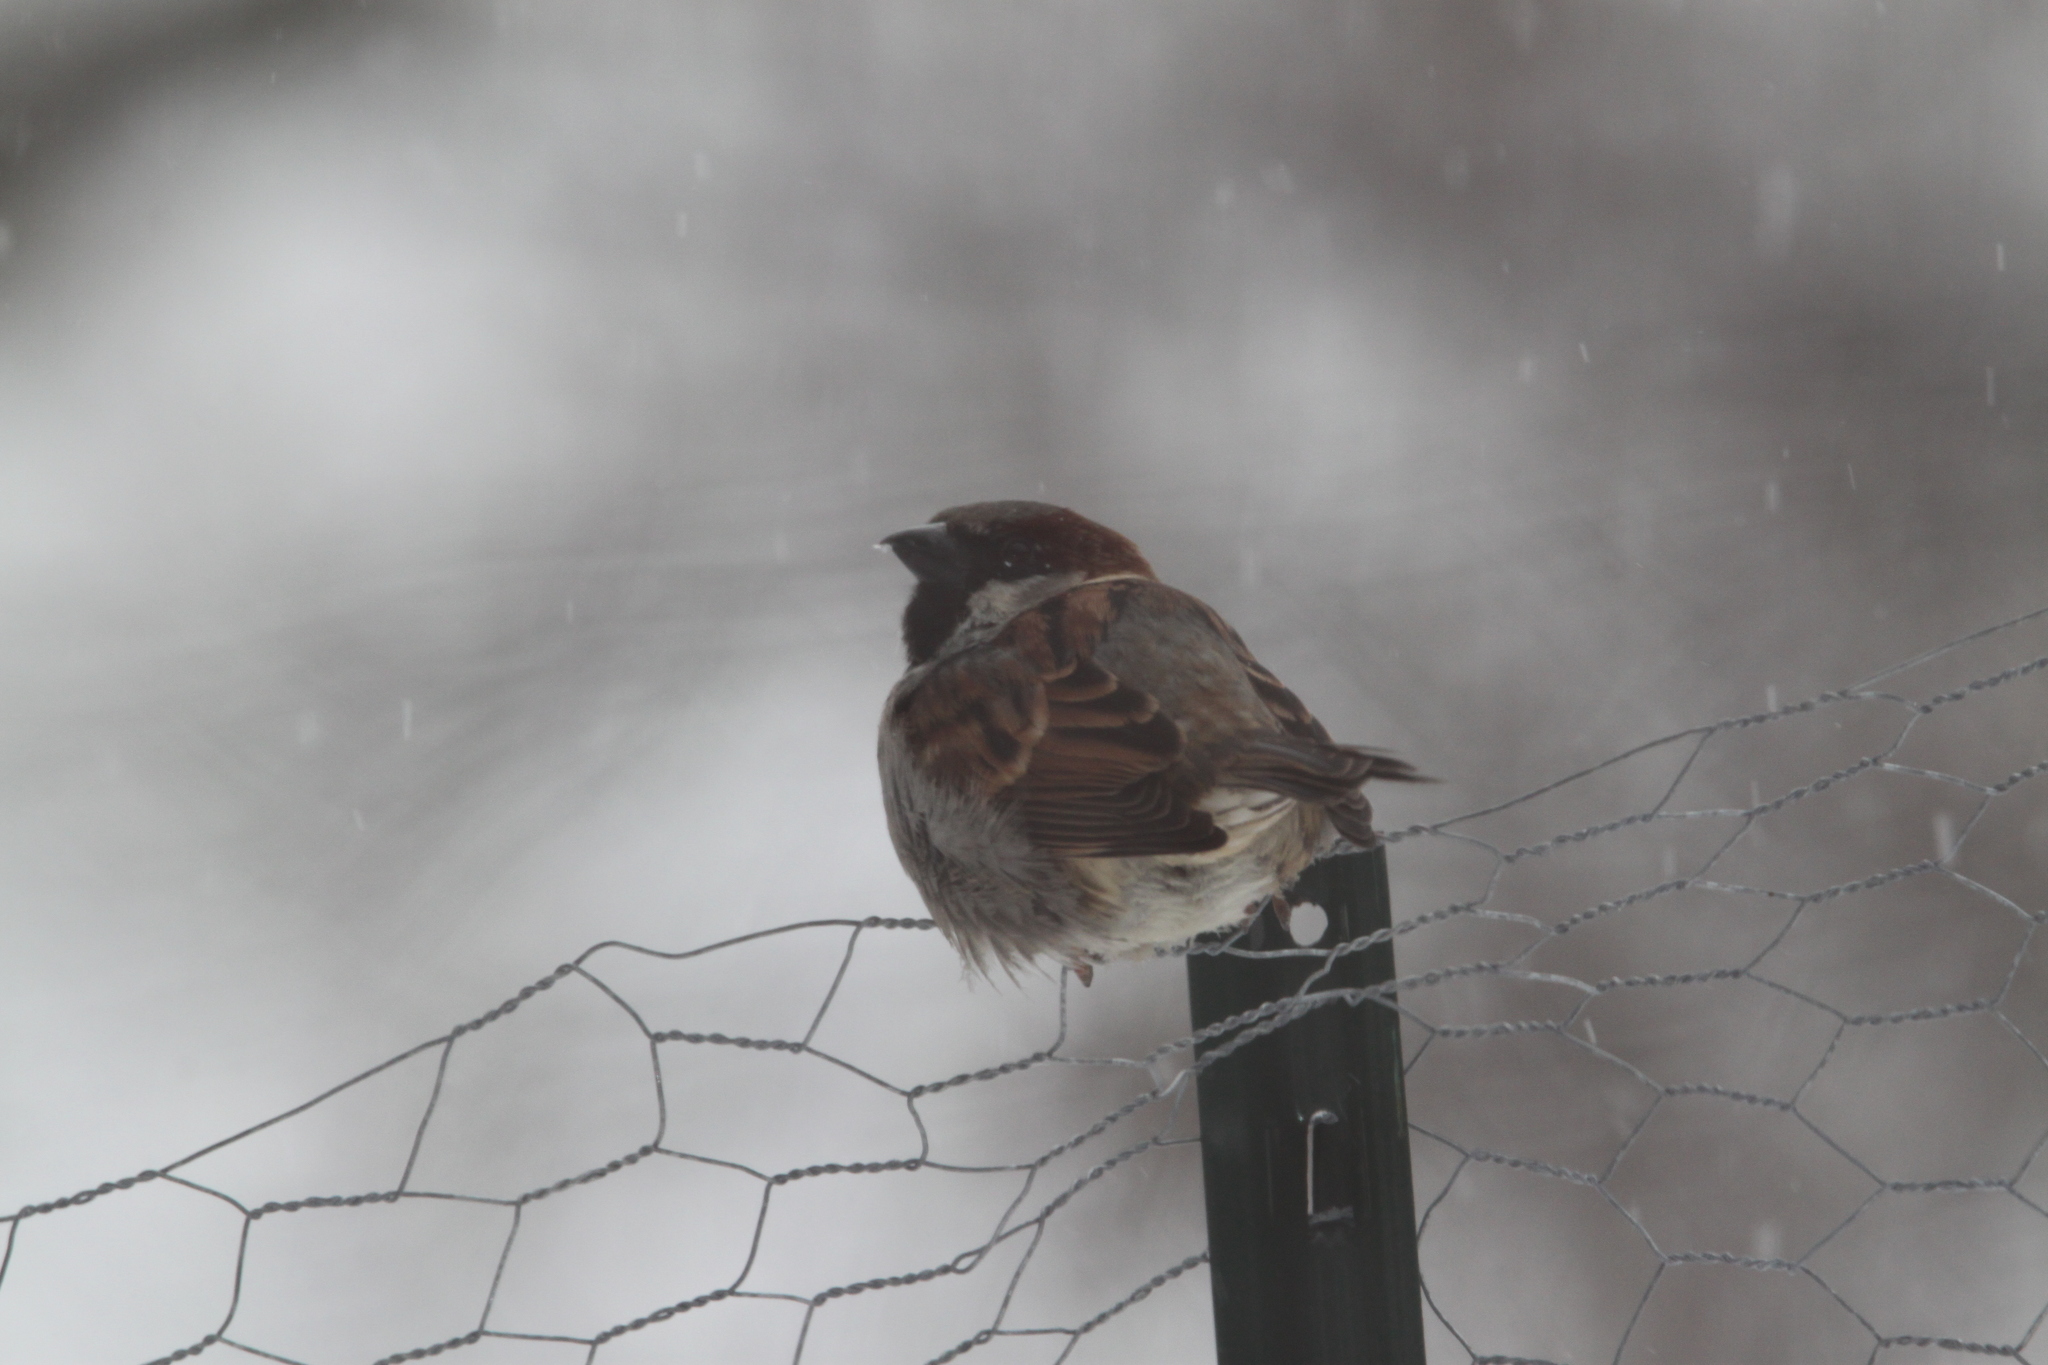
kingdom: Animalia
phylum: Chordata
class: Aves
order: Passeriformes
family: Passeridae
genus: Passer
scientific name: Passer domesticus
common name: House sparrow
